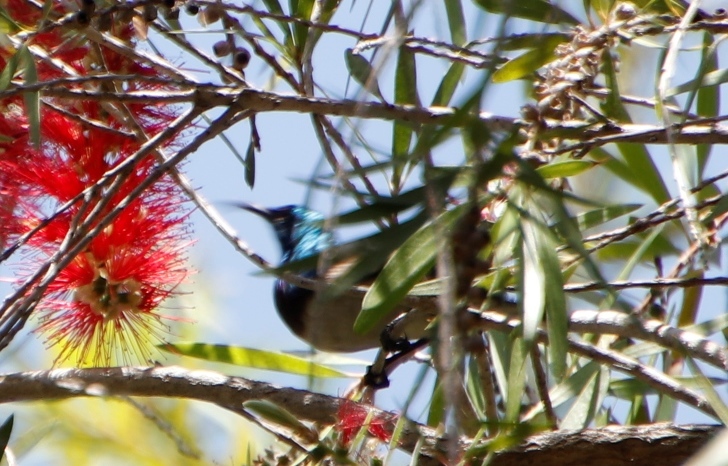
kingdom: Animalia
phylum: Chordata
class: Aves
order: Passeriformes
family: Nectariniidae
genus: Cinnyris
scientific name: Cinnyris talatala
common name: White-bellied sunbird
